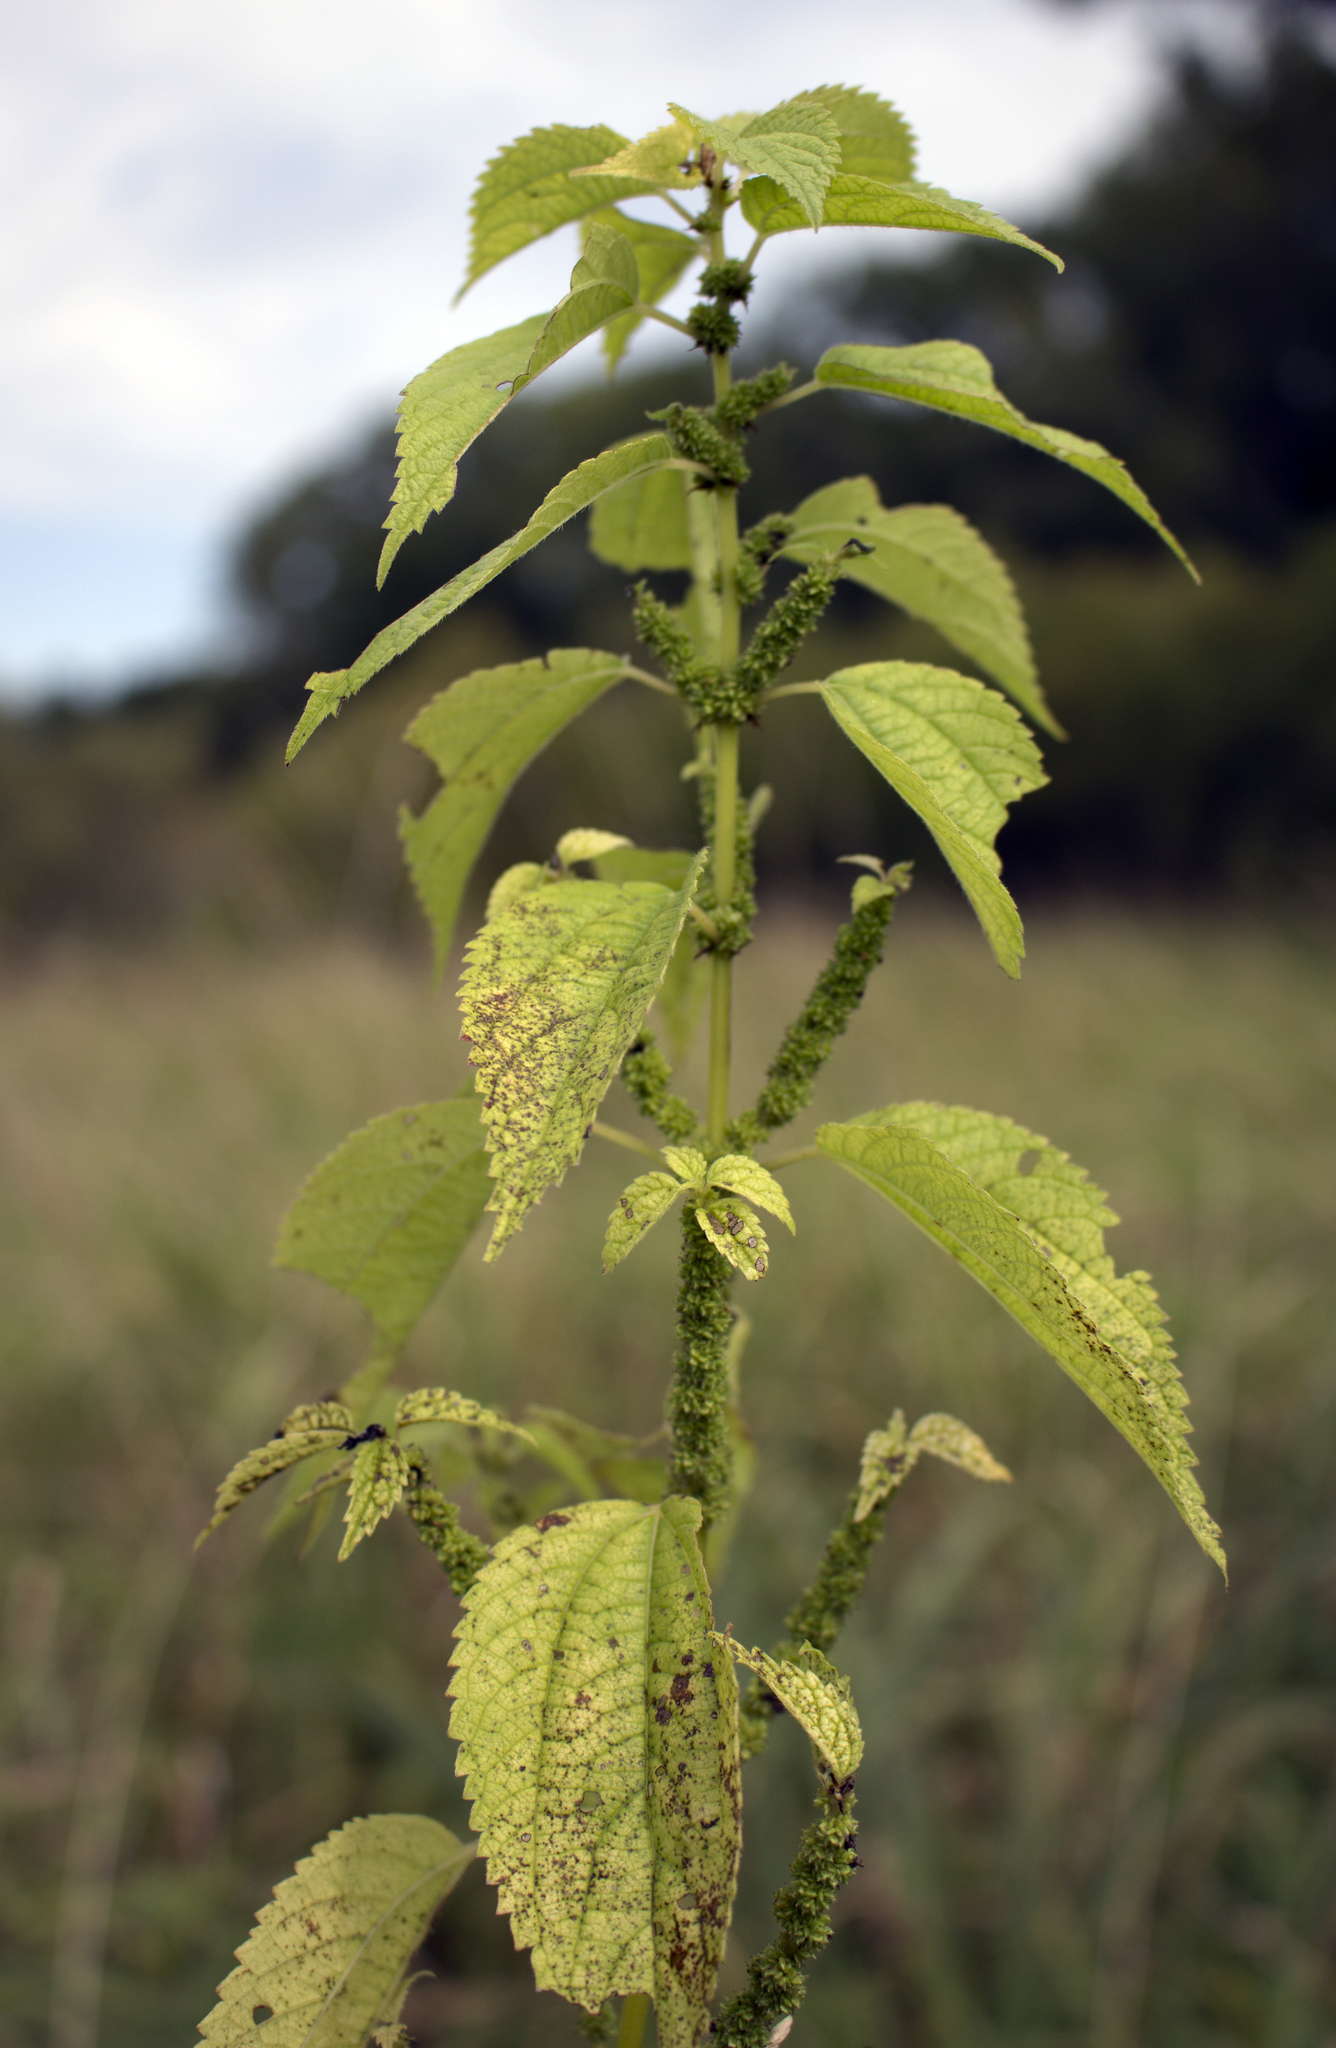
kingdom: Plantae
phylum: Tracheophyta
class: Magnoliopsida
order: Rosales
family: Urticaceae
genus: Boehmeria
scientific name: Boehmeria cylindrica
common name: Bog-hemp
